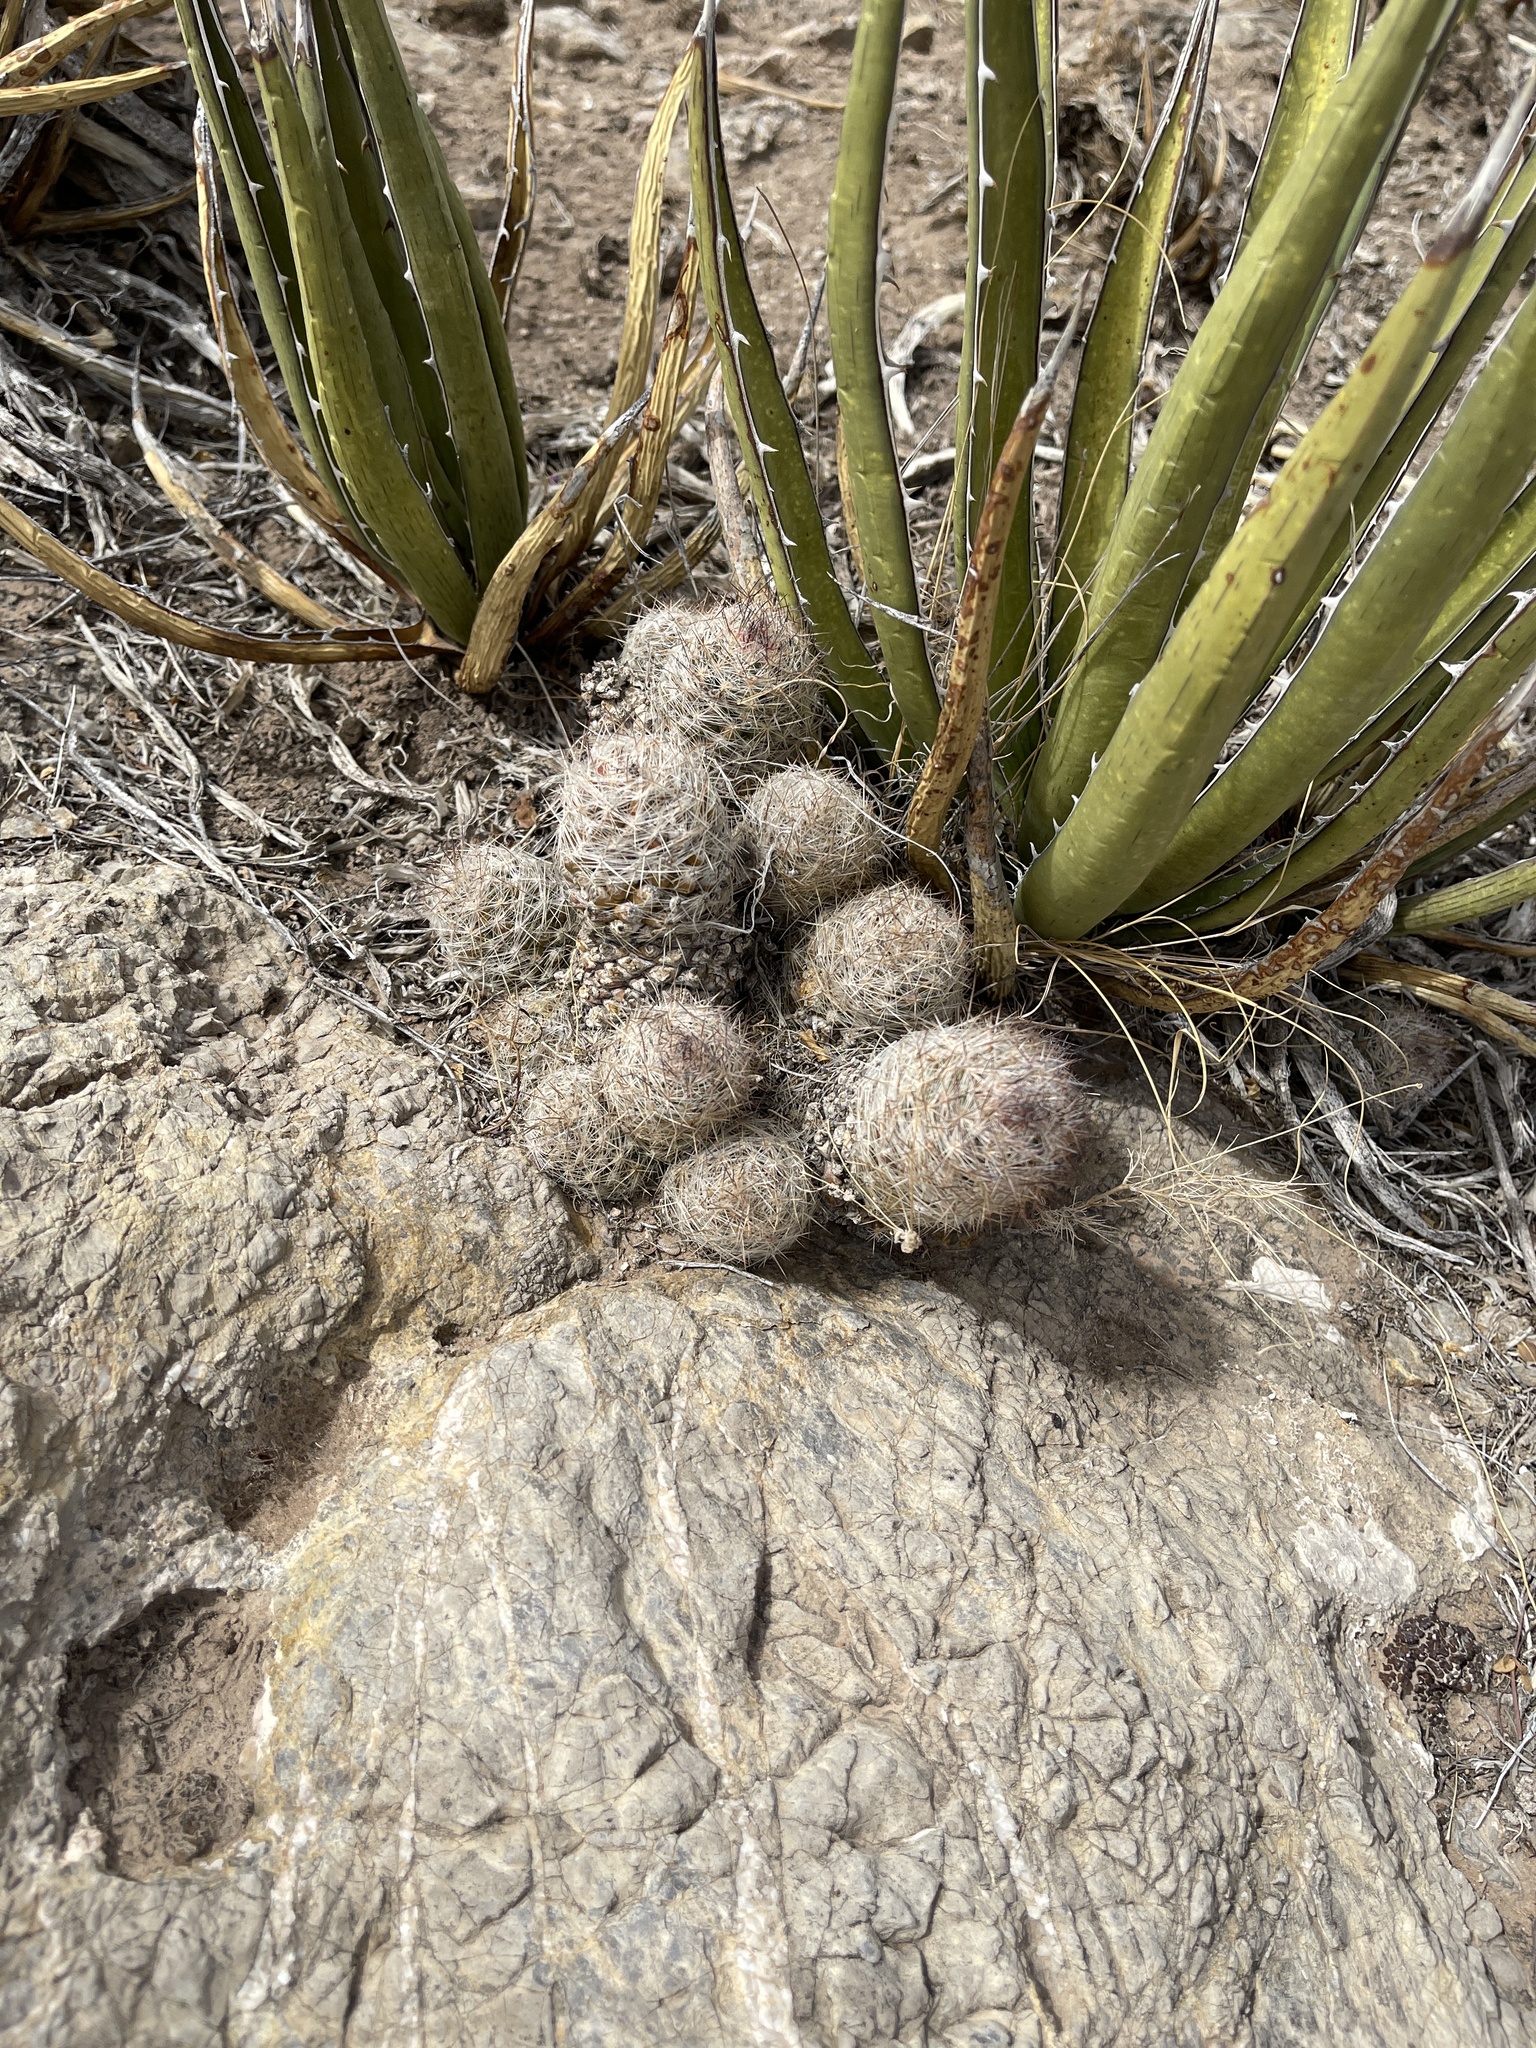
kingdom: Plantae
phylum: Tracheophyta
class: Magnoliopsida
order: Caryophyllales
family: Cactaceae
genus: Pelecyphora
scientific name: Pelecyphora tuberculosa
